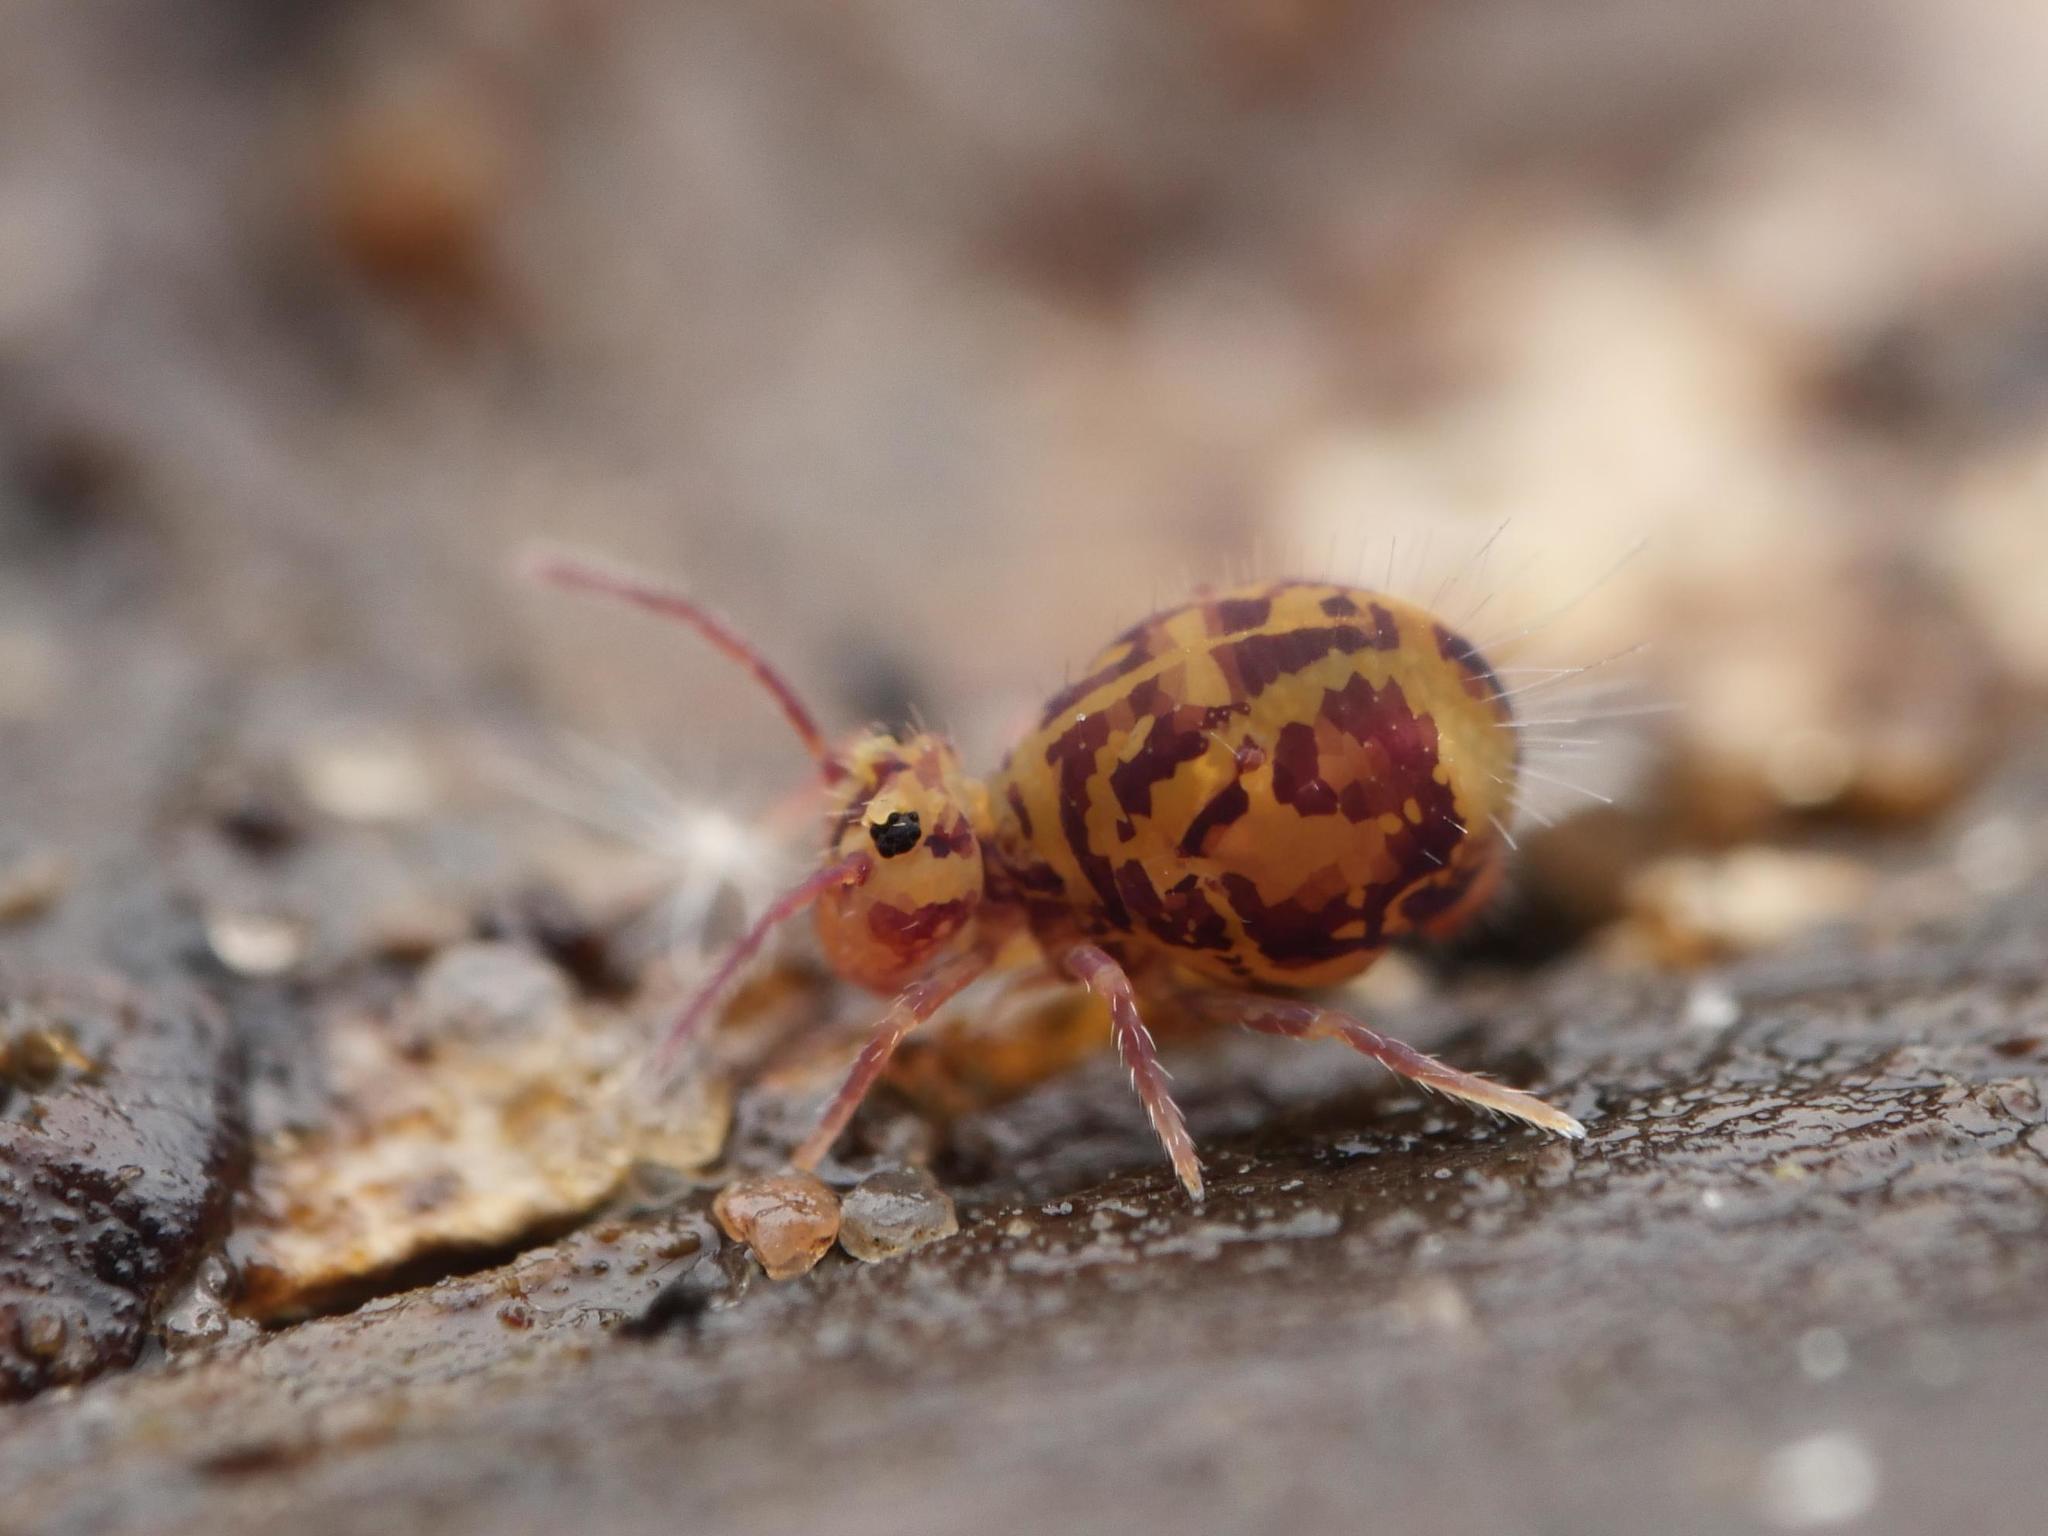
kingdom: Animalia
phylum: Arthropoda
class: Collembola
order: Symphypleona
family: Dicyrtomidae
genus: Dicyrtomina
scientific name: Dicyrtomina ornata
